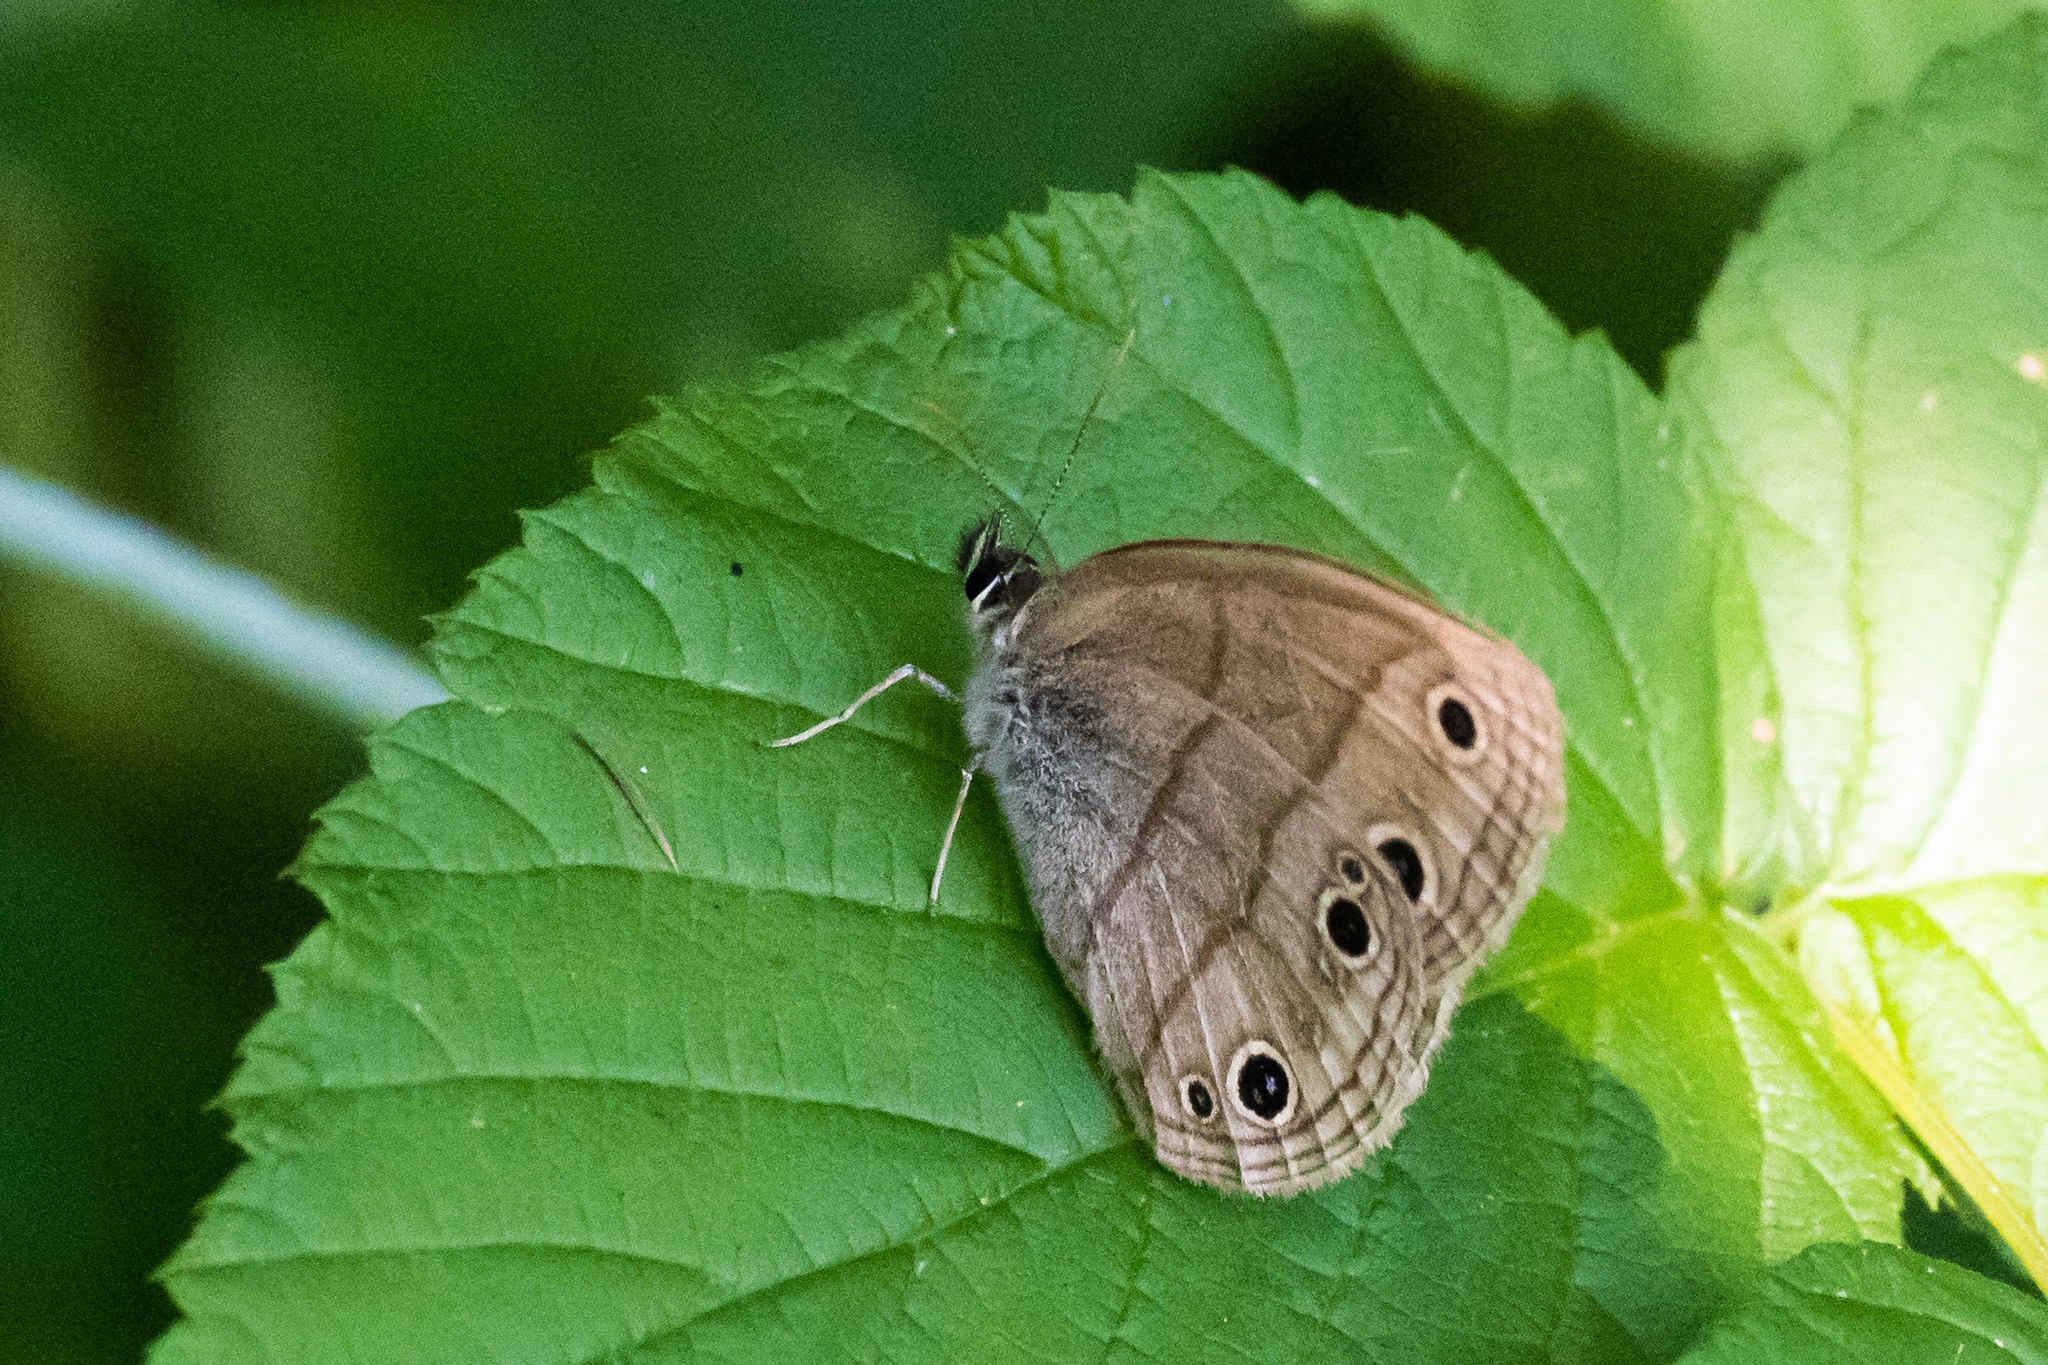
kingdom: Animalia
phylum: Arthropoda
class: Insecta
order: Lepidoptera
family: Nymphalidae
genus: Euptychia
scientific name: Euptychia cymela
